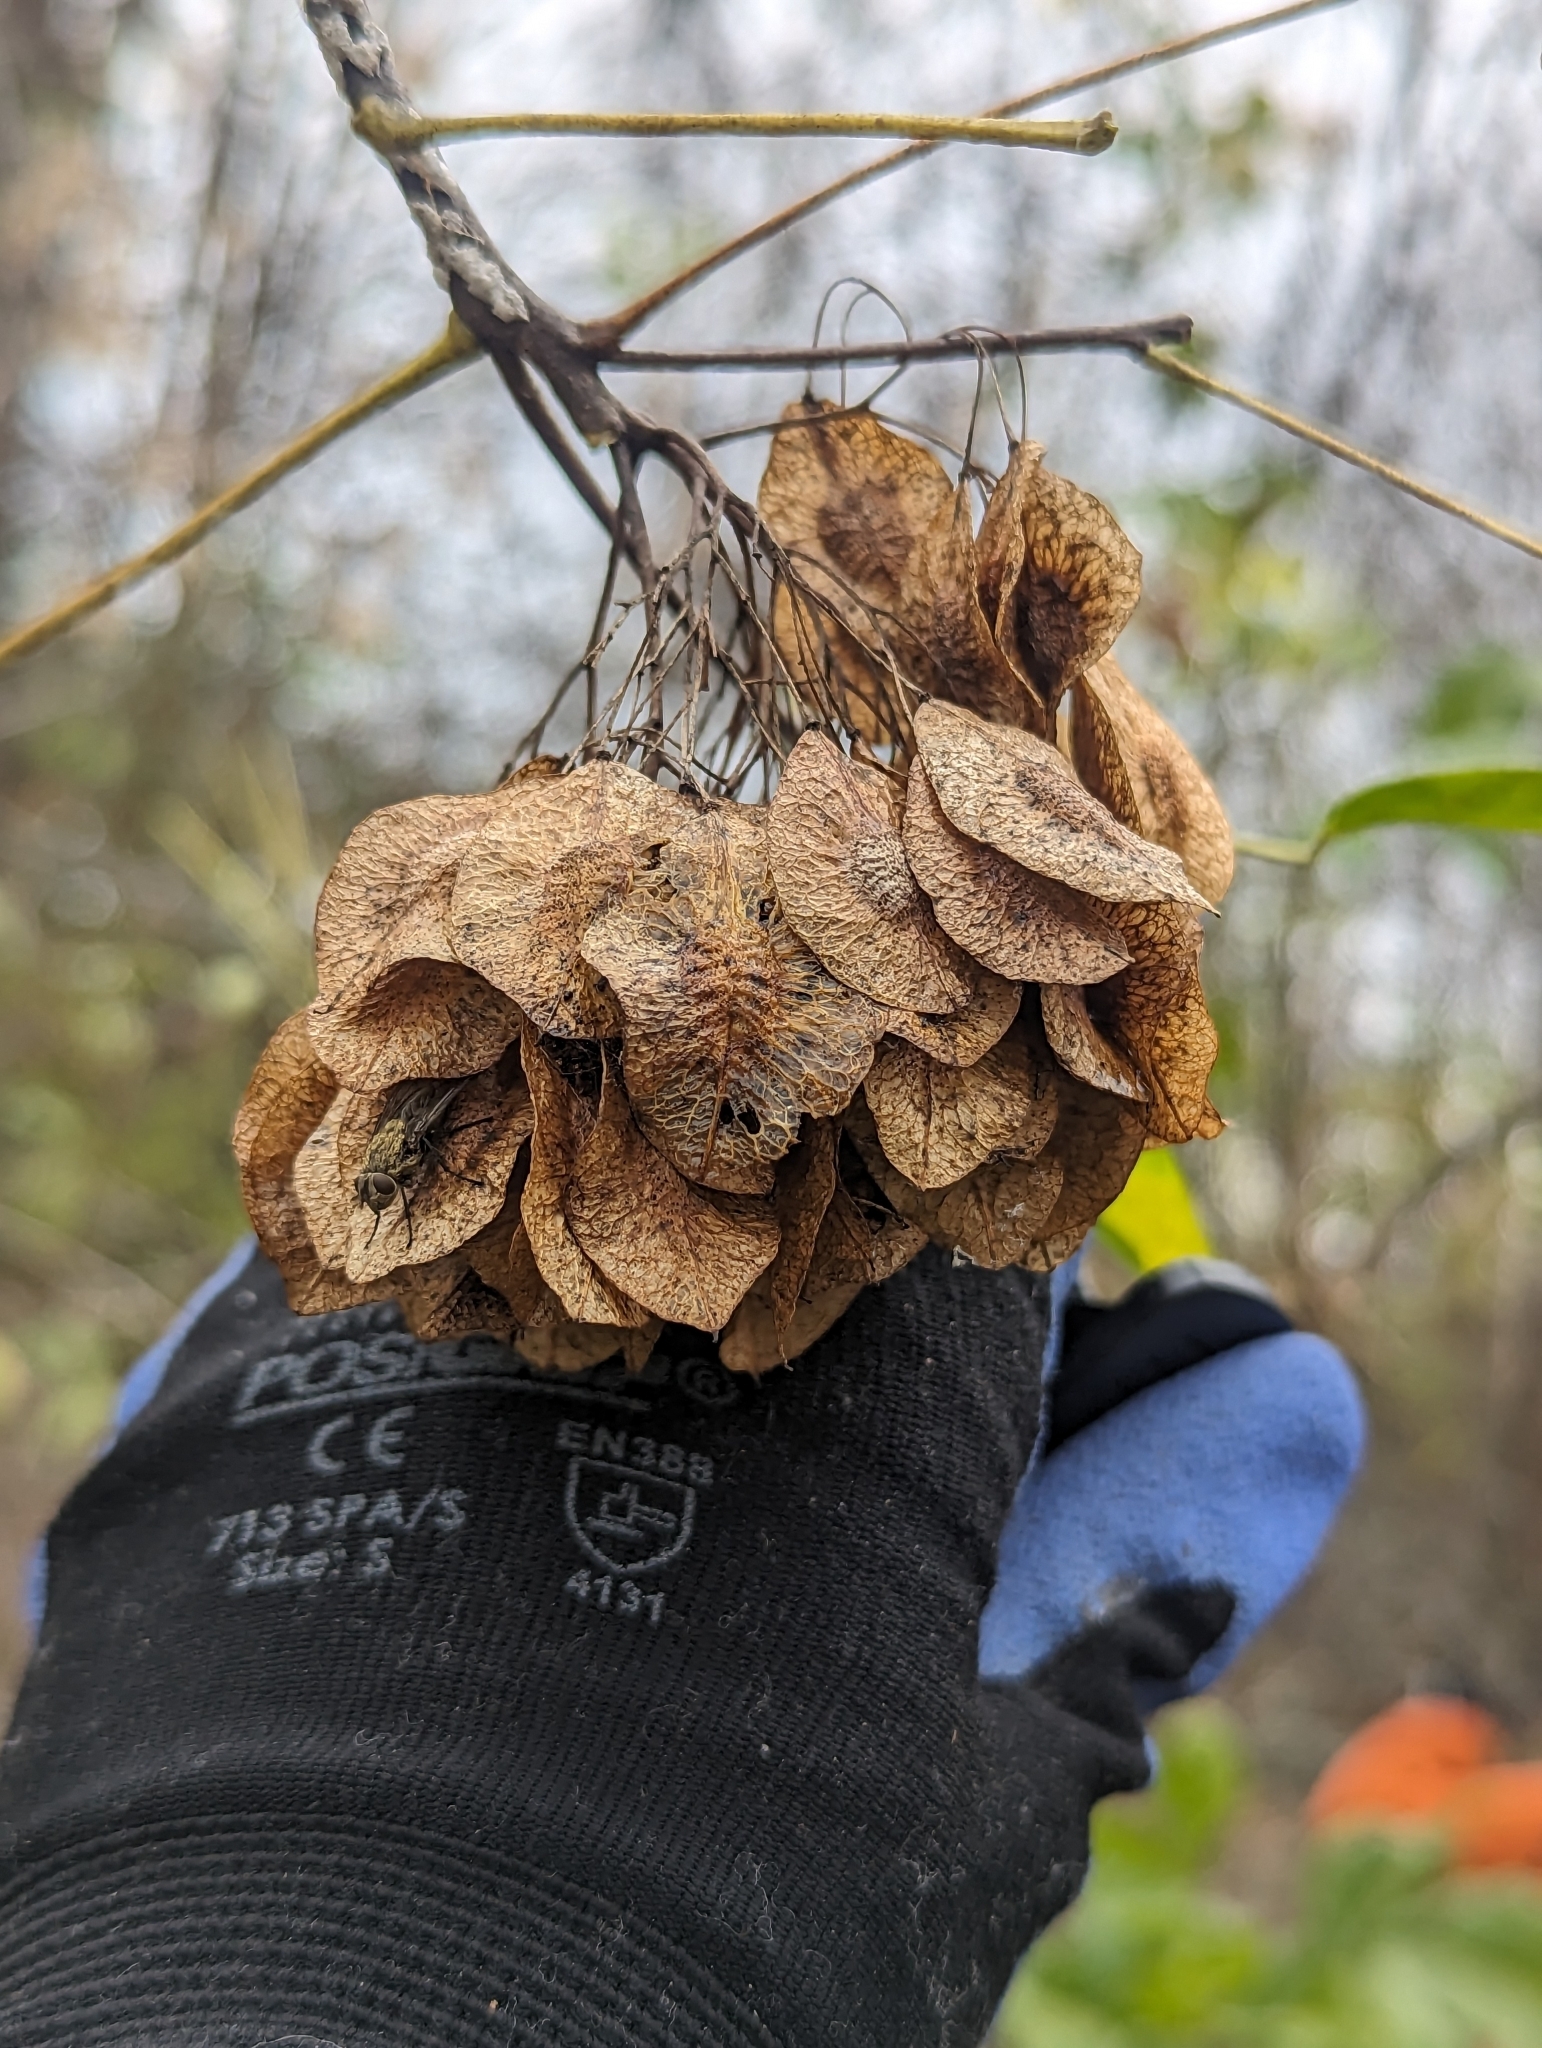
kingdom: Plantae
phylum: Tracheophyta
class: Magnoliopsida
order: Sapindales
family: Rutaceae
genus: Ptelea
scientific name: Ptelea trifoliata
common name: Common hop-tree
